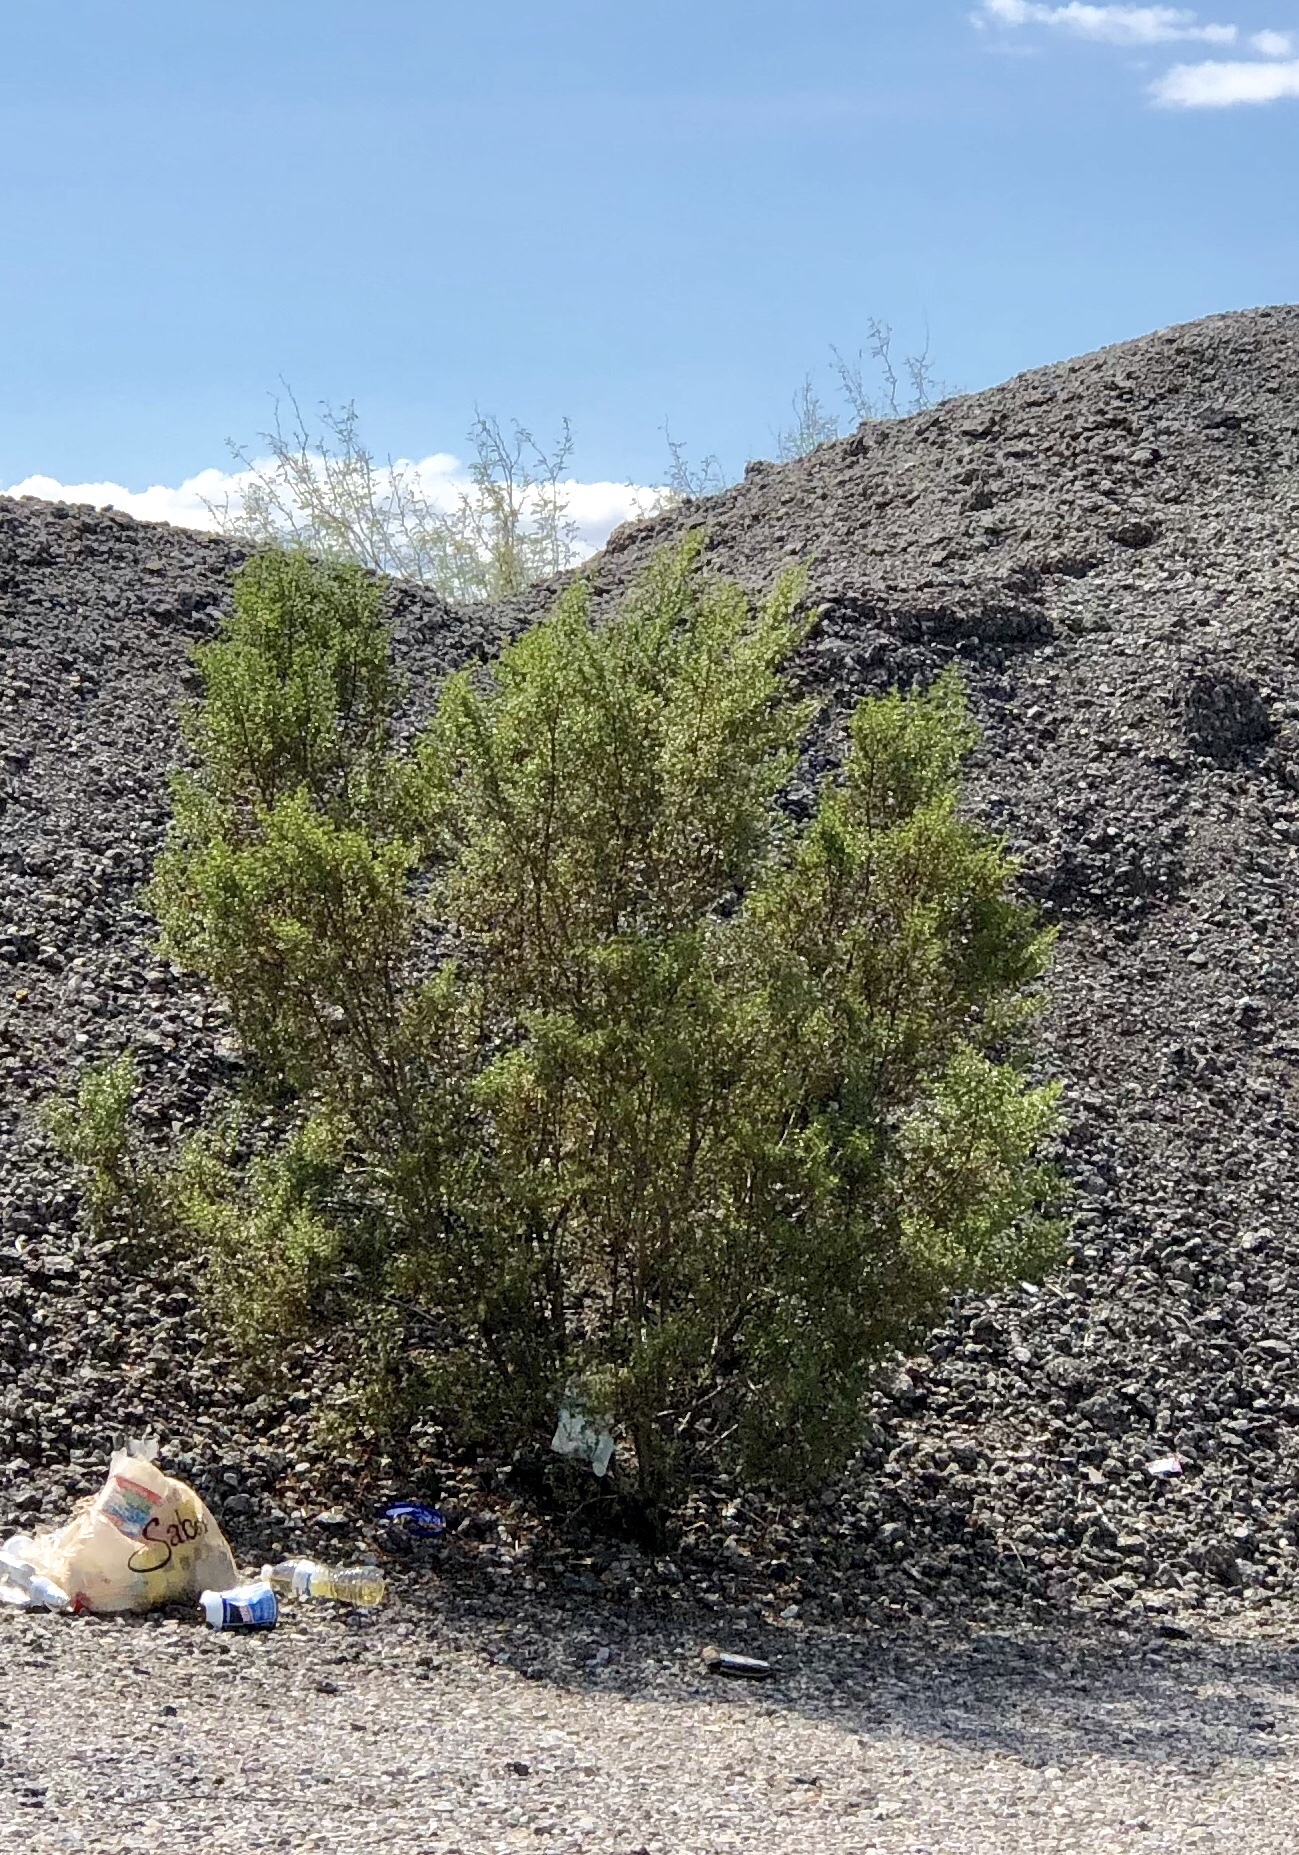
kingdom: Plantae
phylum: Tracheophyta
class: Magnoliopsida
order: Zygophyllales
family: Zygophyllaceae
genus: Larrea
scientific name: Larrea tridentata
